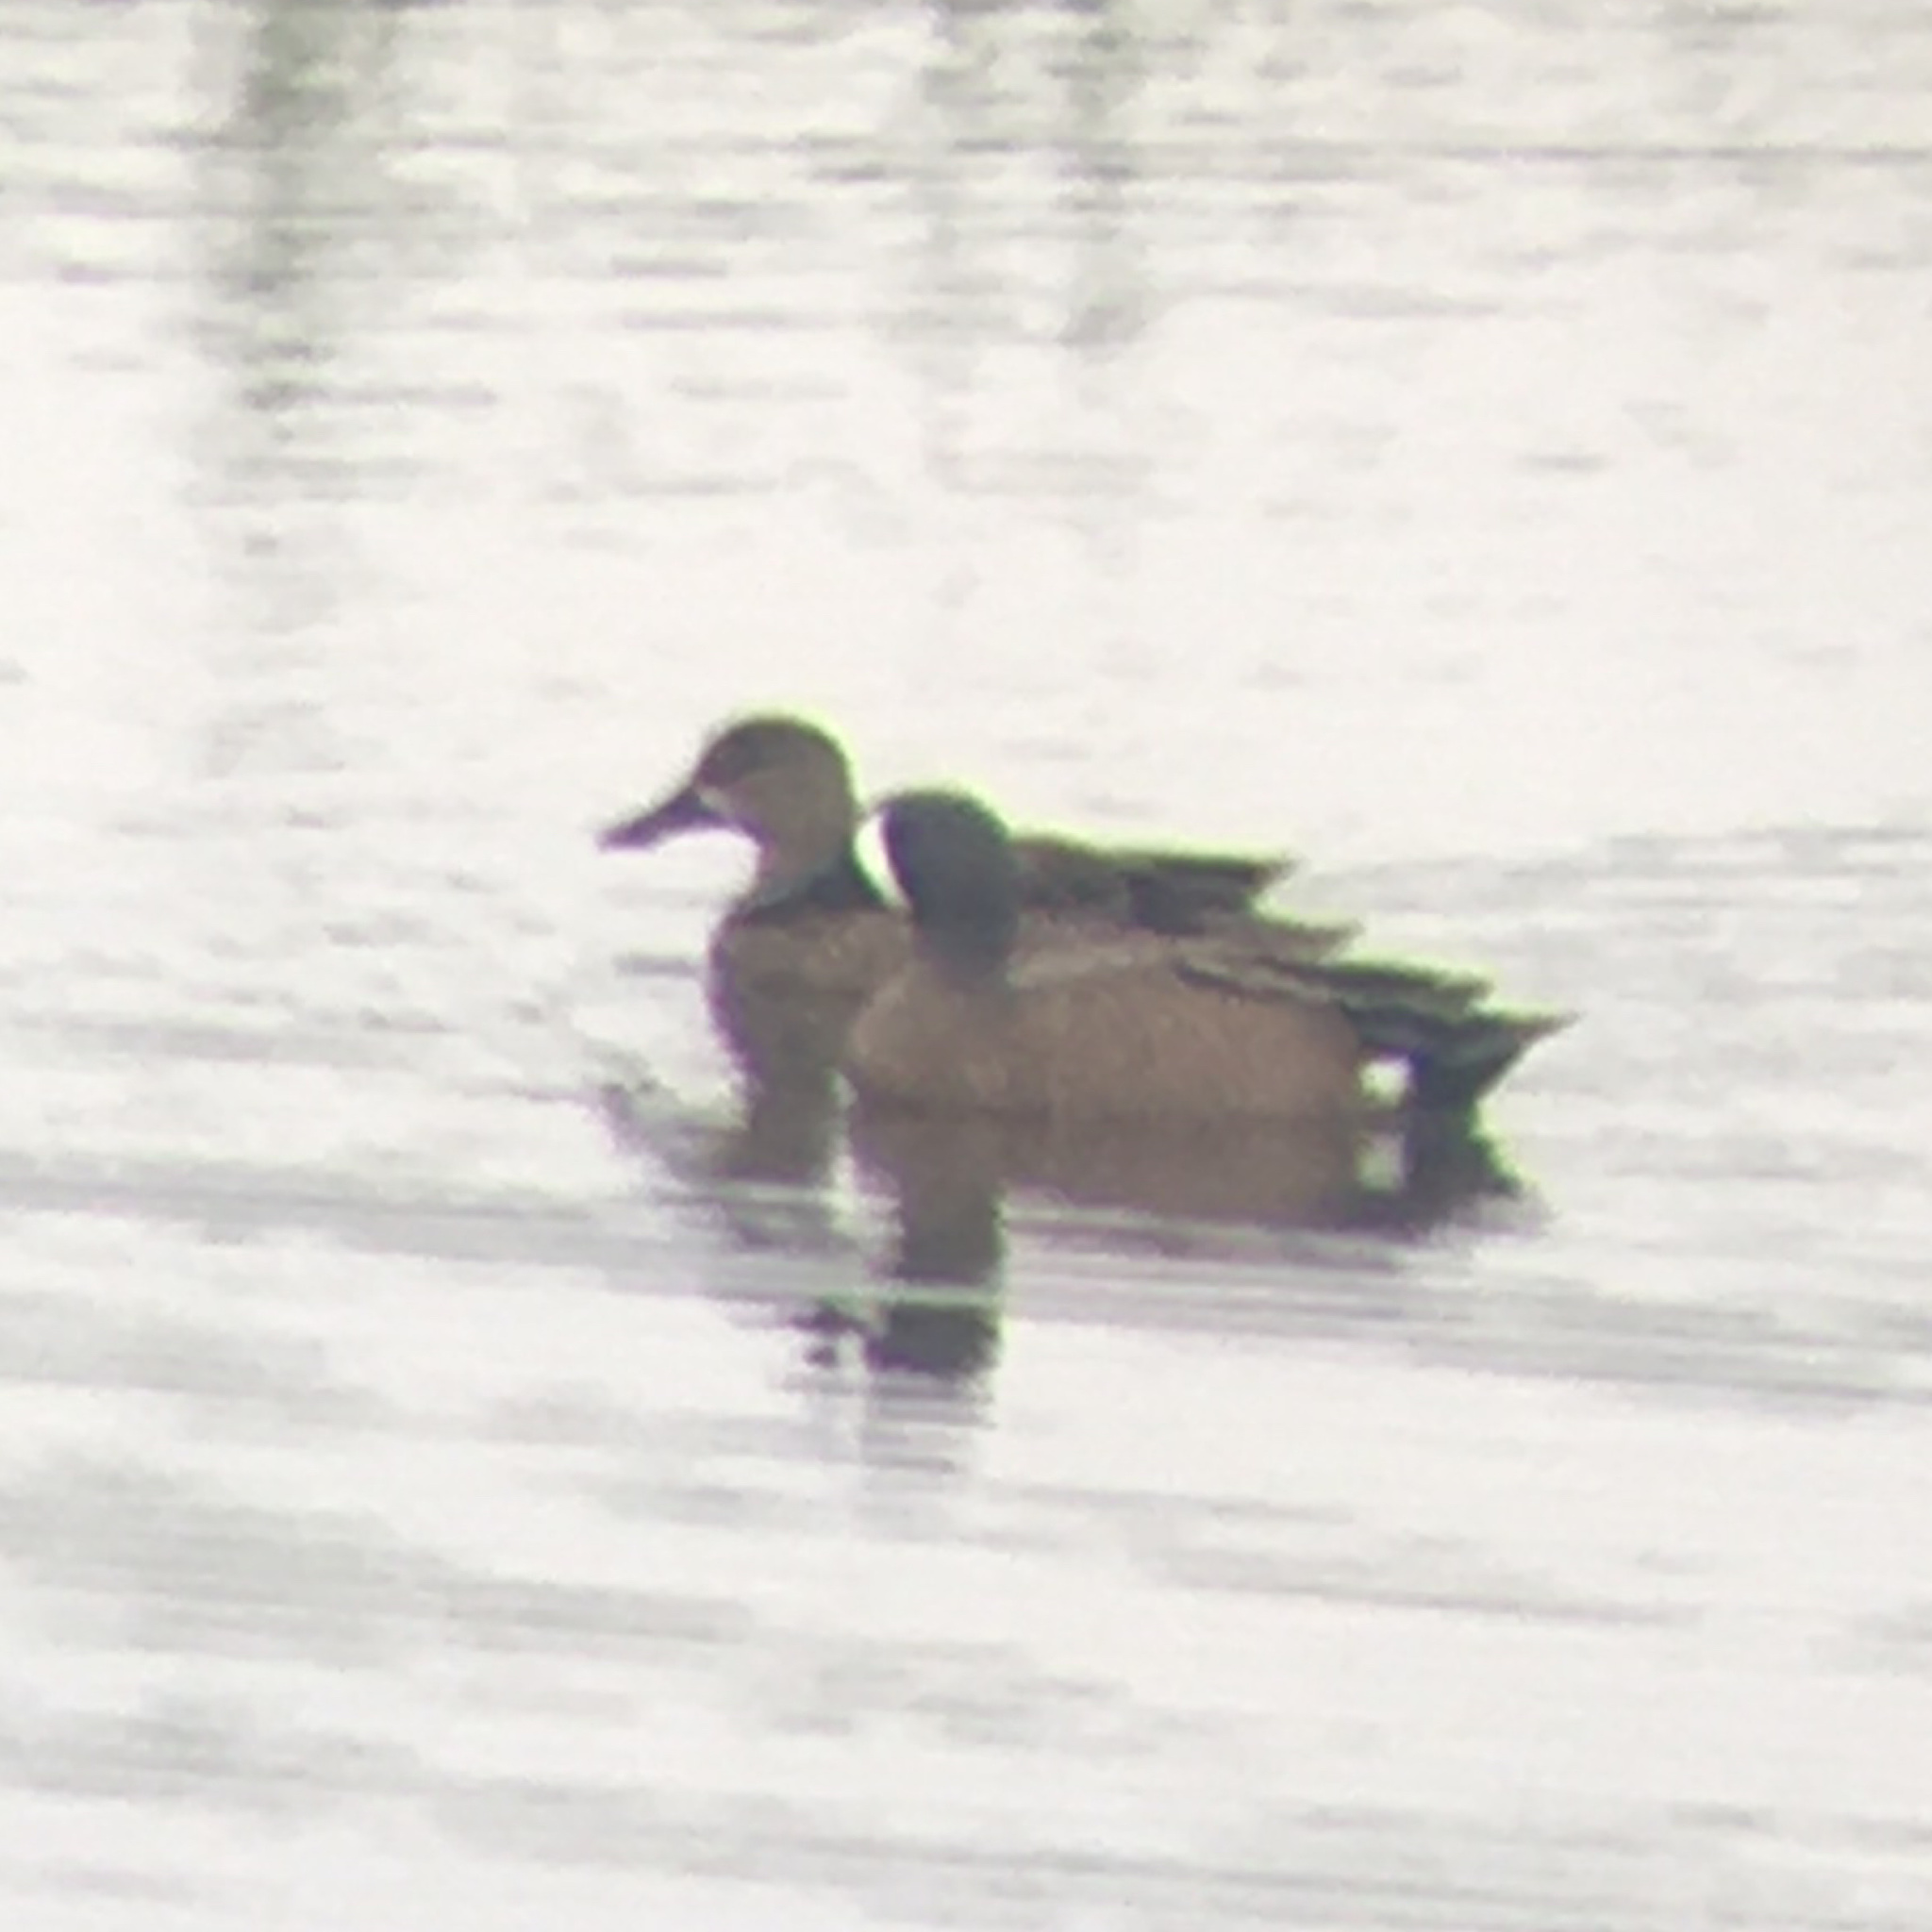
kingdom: Animalia
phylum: Chordata
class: Aves
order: Anseriformes
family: Anatidae
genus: Spatula
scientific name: Spatula discors
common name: Blue-winged teal
